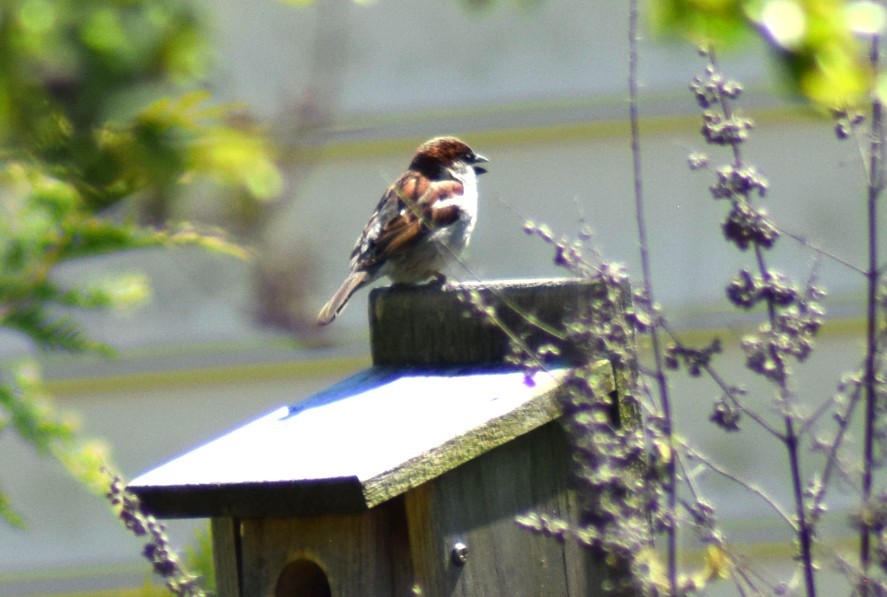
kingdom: Animalia
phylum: Chordata
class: Aves
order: Passeriformes
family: Passeridae
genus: Passer
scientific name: Passer domesticus
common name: House sparrow
